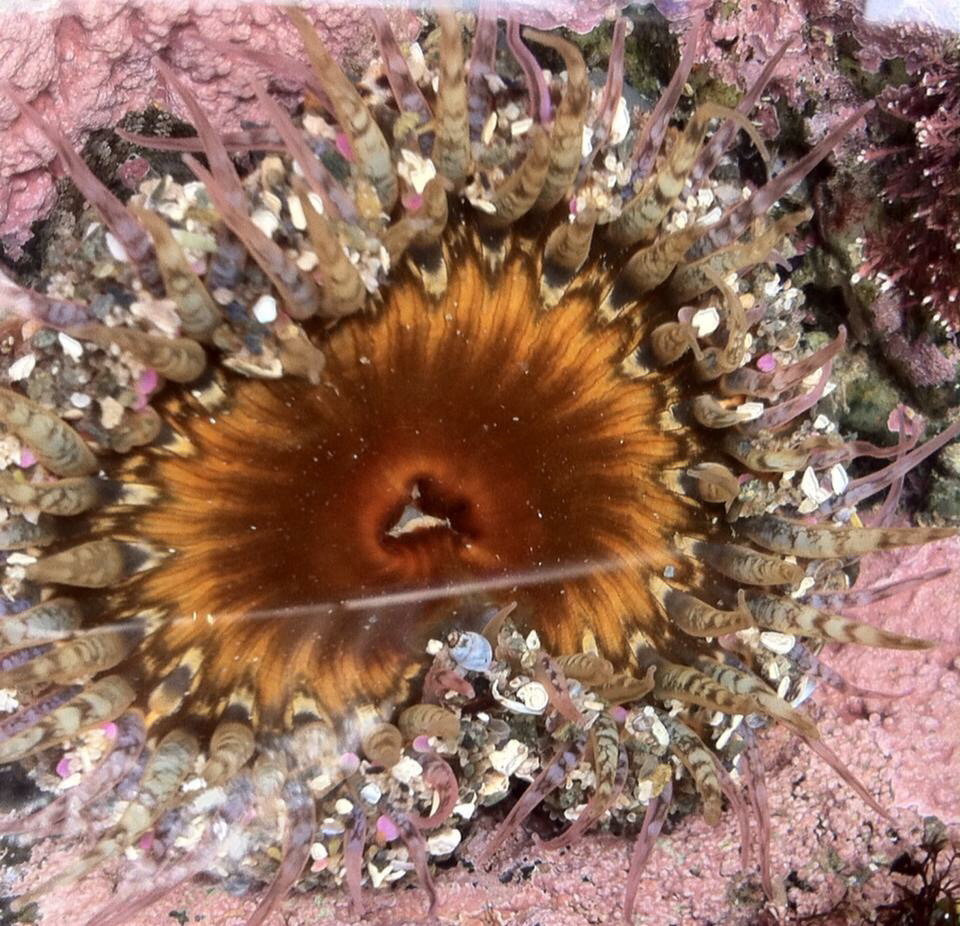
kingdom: Animalia
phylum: Cnidaria
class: Anthozoa
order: Actiniaria
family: Actiniidae
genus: Oulactis
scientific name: Oulactis muscosa
